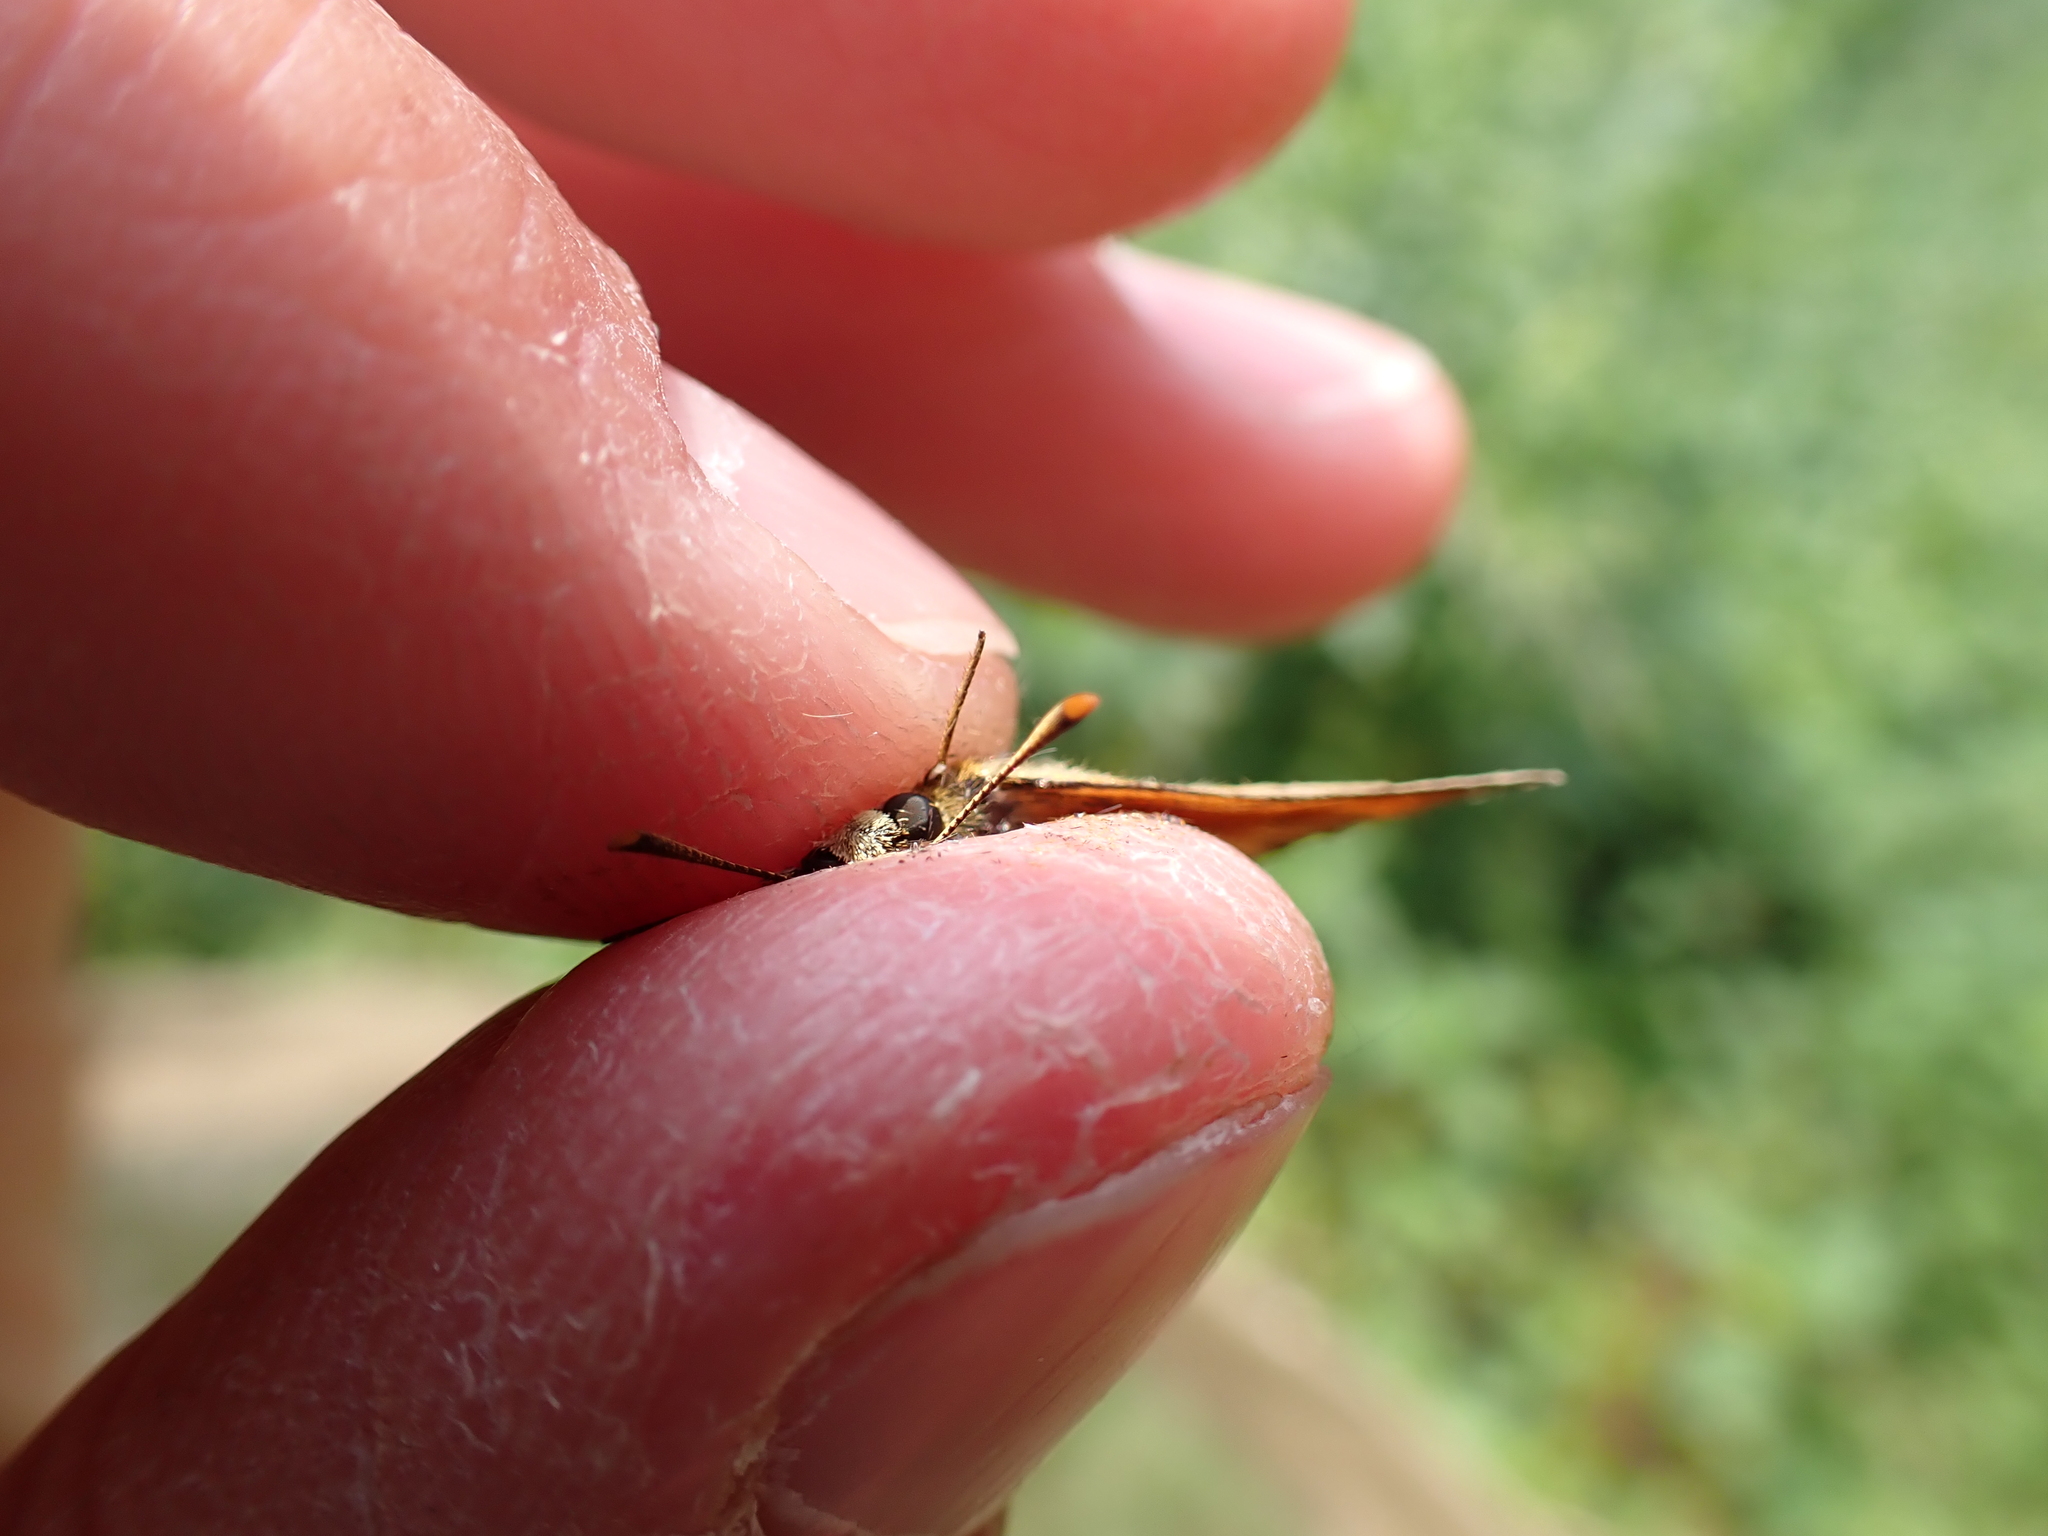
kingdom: Animalia
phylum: Arthropoda
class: Insecta
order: Lepidoptera
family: Hesperiidae
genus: Thymelicus
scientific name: Thymelicus sylvestris
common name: Small skipper
